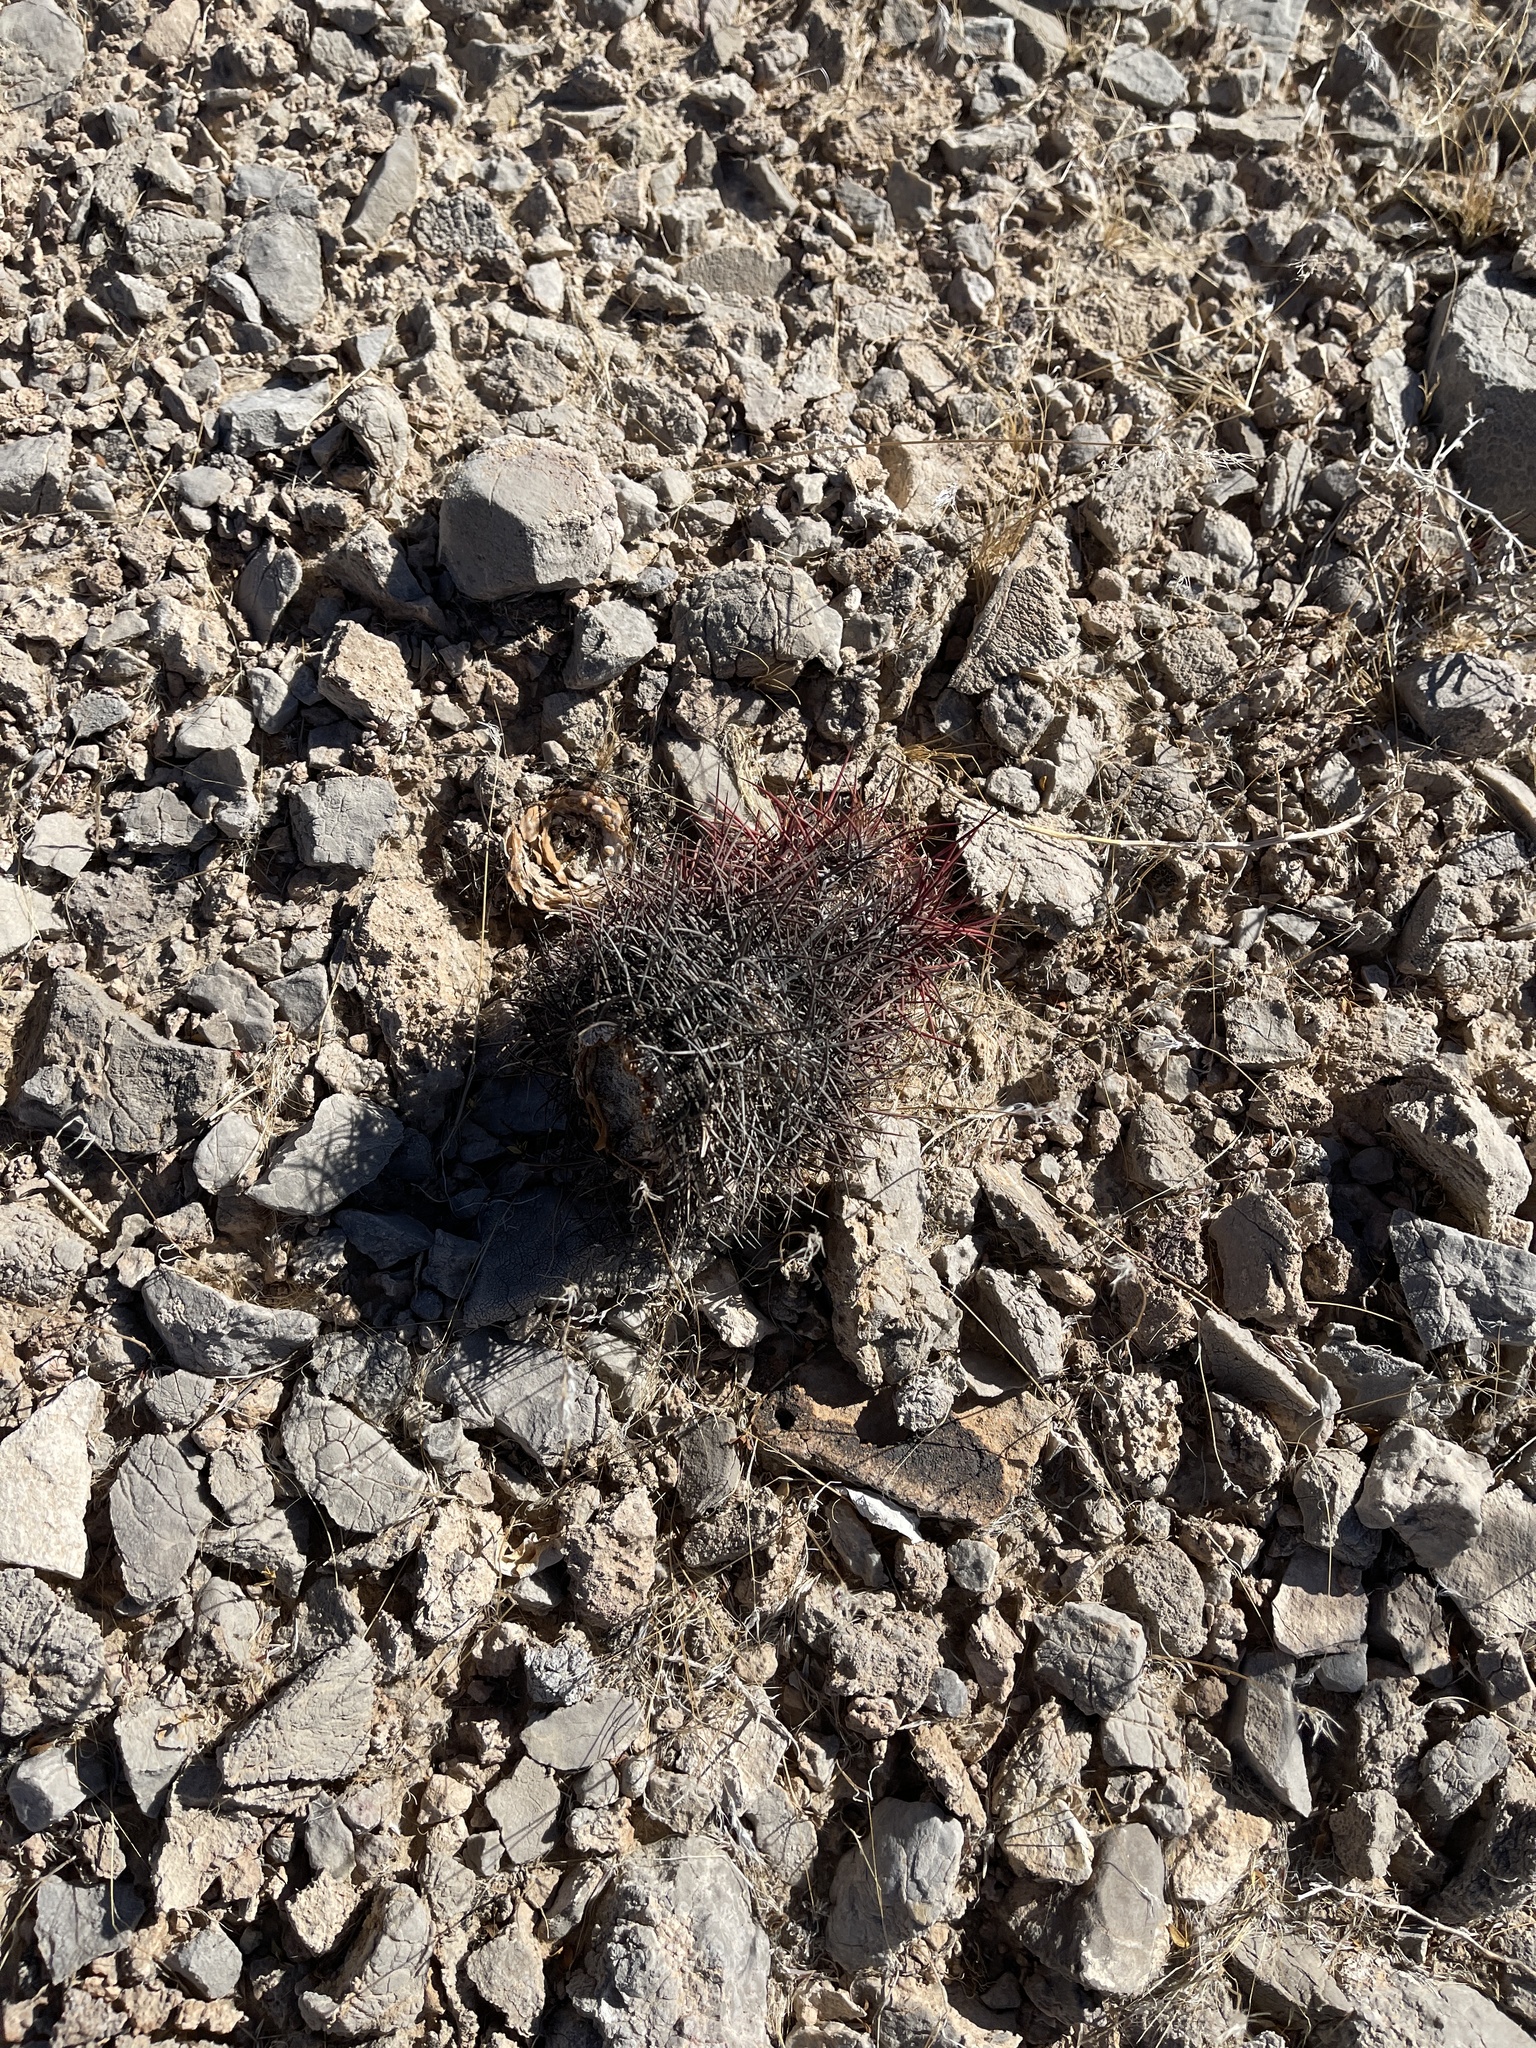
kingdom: Plantae
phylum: Tracheophyta
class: Magnoliopsida
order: Caryophyllales
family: Cactaceae
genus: Sclerocactus
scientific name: Sclerocactus johnsonii
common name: Eight-spine fishhook cactus
